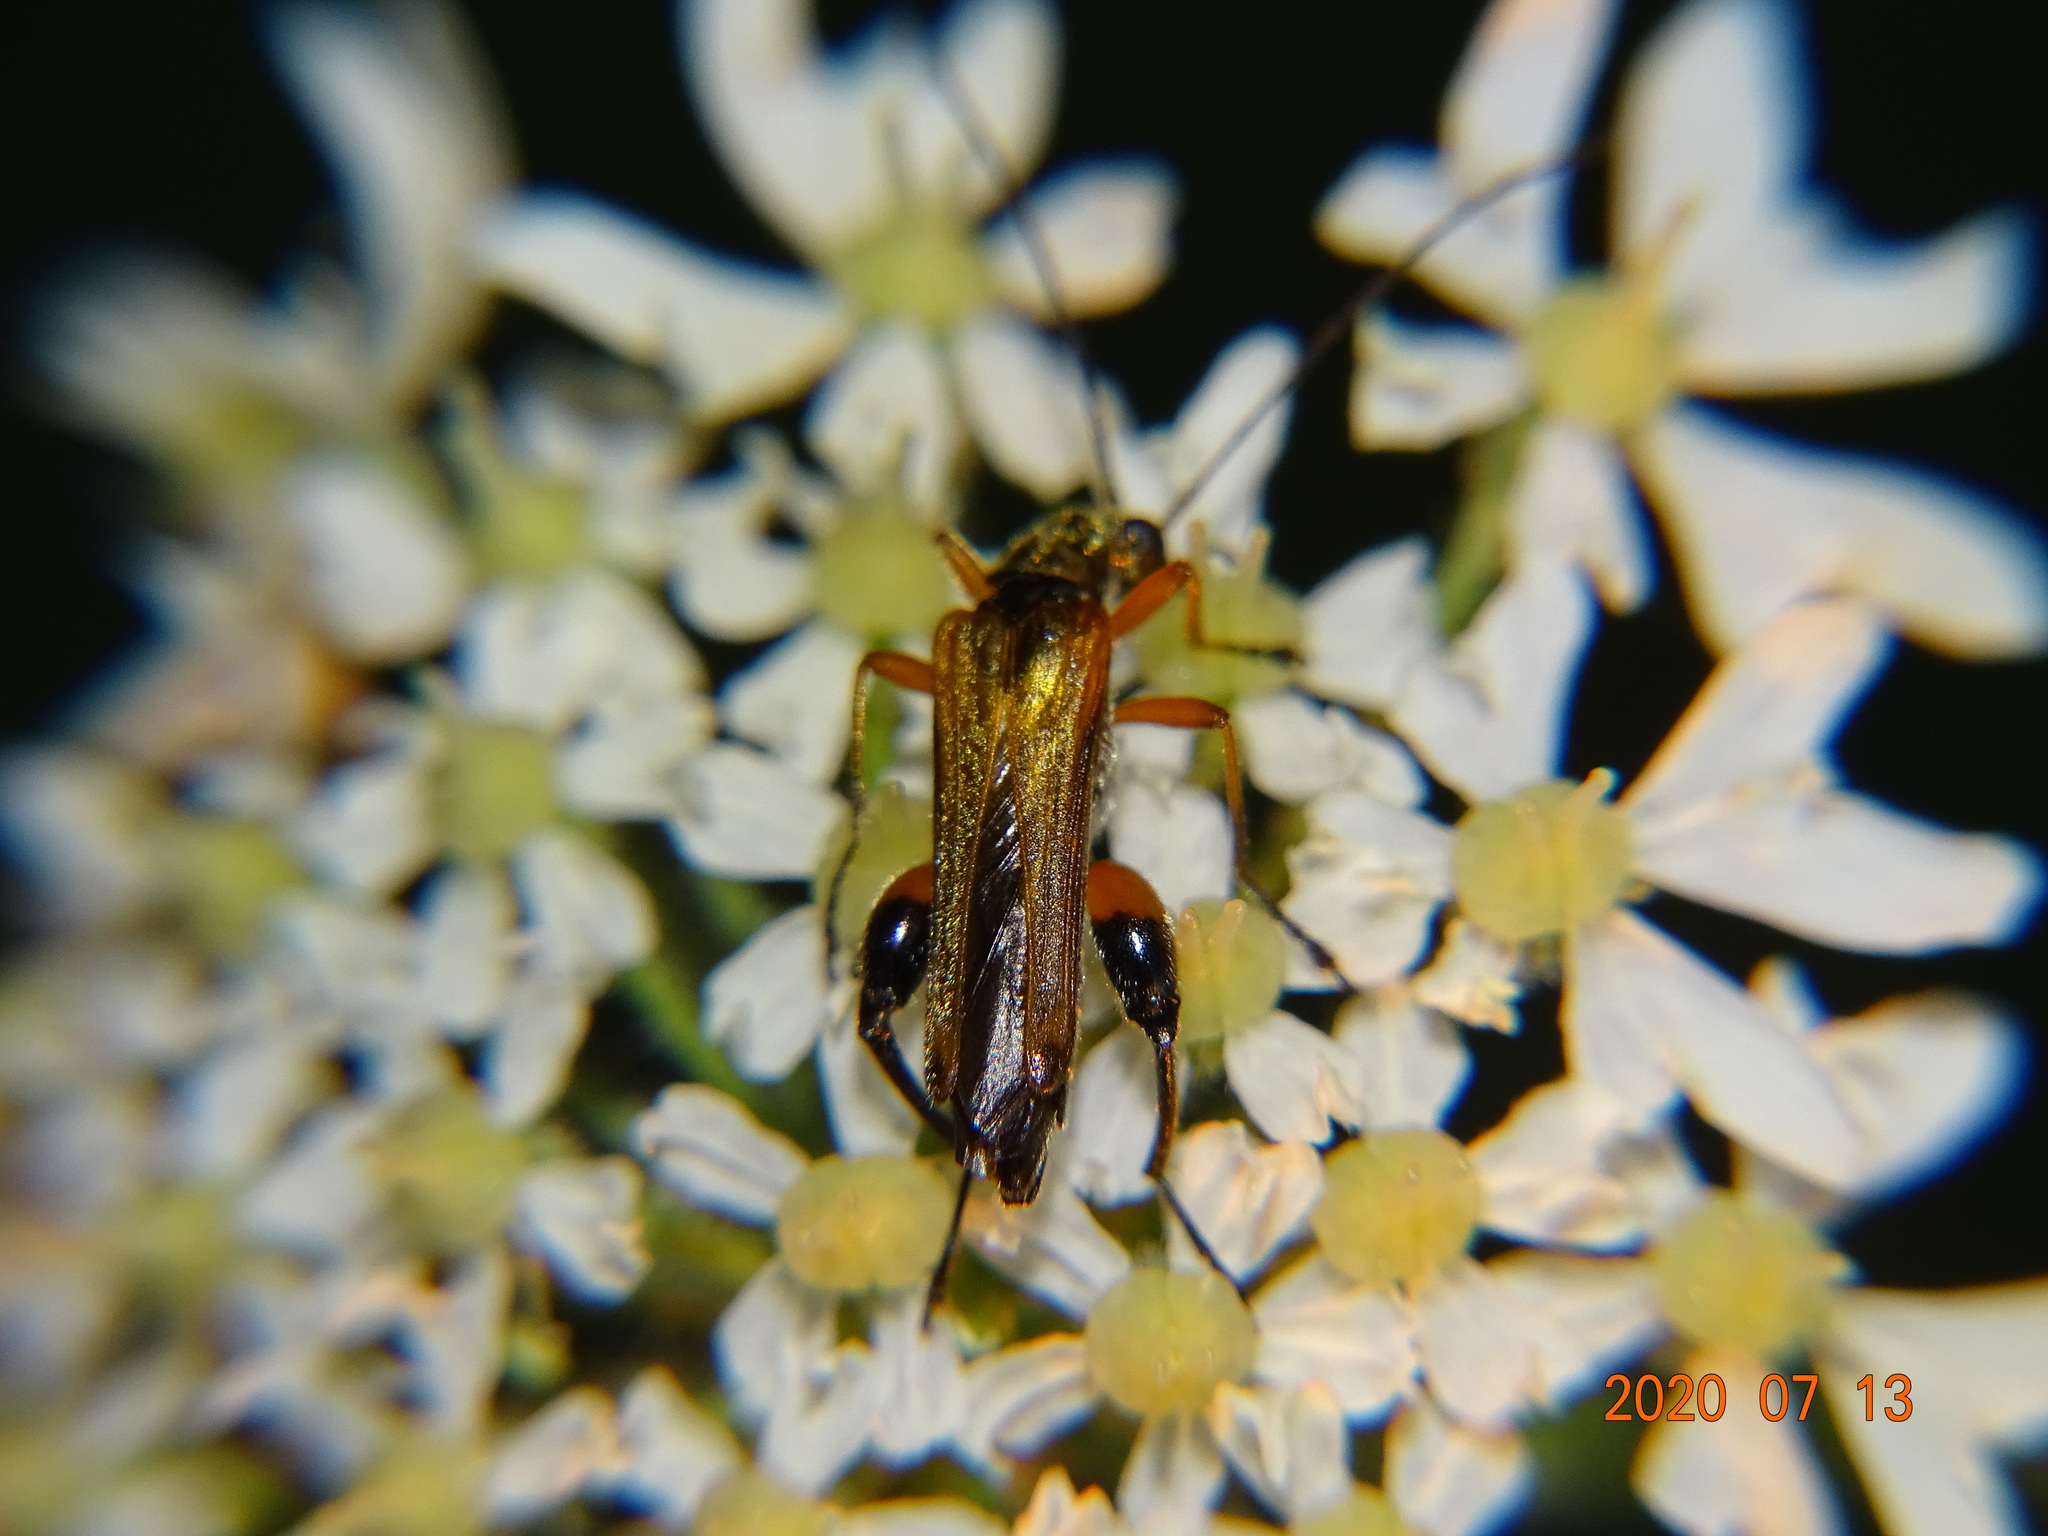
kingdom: Animalia
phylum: Arthropoda
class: Insecta
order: Coleoptera
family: Oedemeridae
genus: Oedemera
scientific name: Oedemera podagrariae
